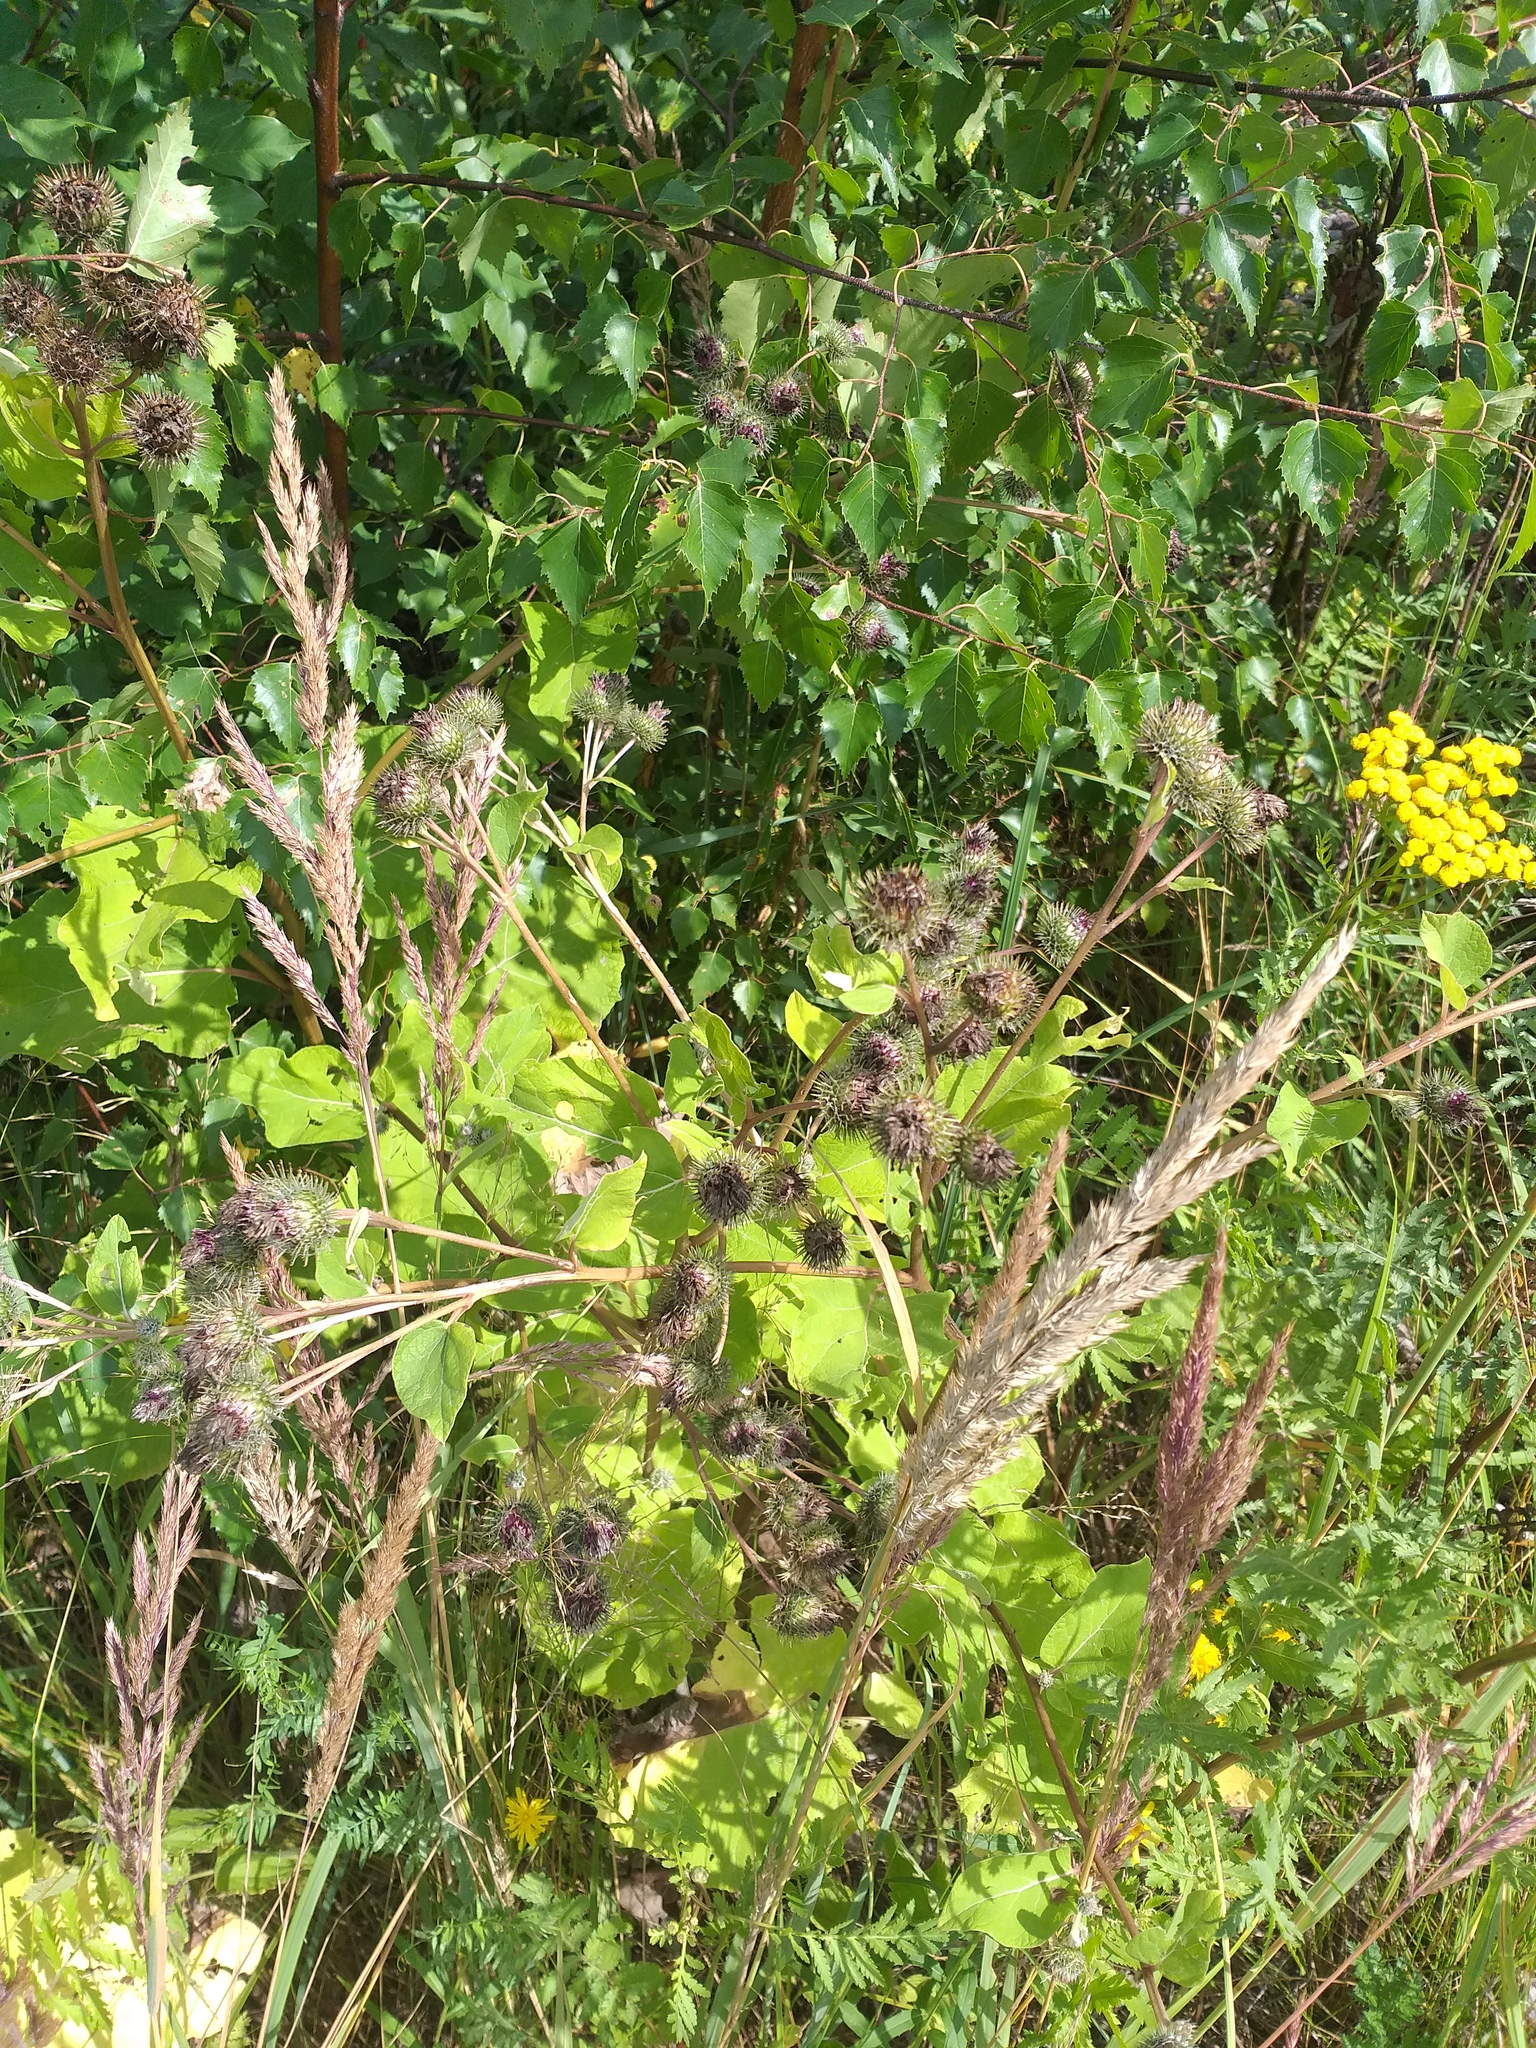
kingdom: Plantae
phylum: Tracheophyta
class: Magnoliopsida
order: Asterales
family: Asteraceae
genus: Arctium
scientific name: Arctium tomentosum
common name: Woolly burdock
